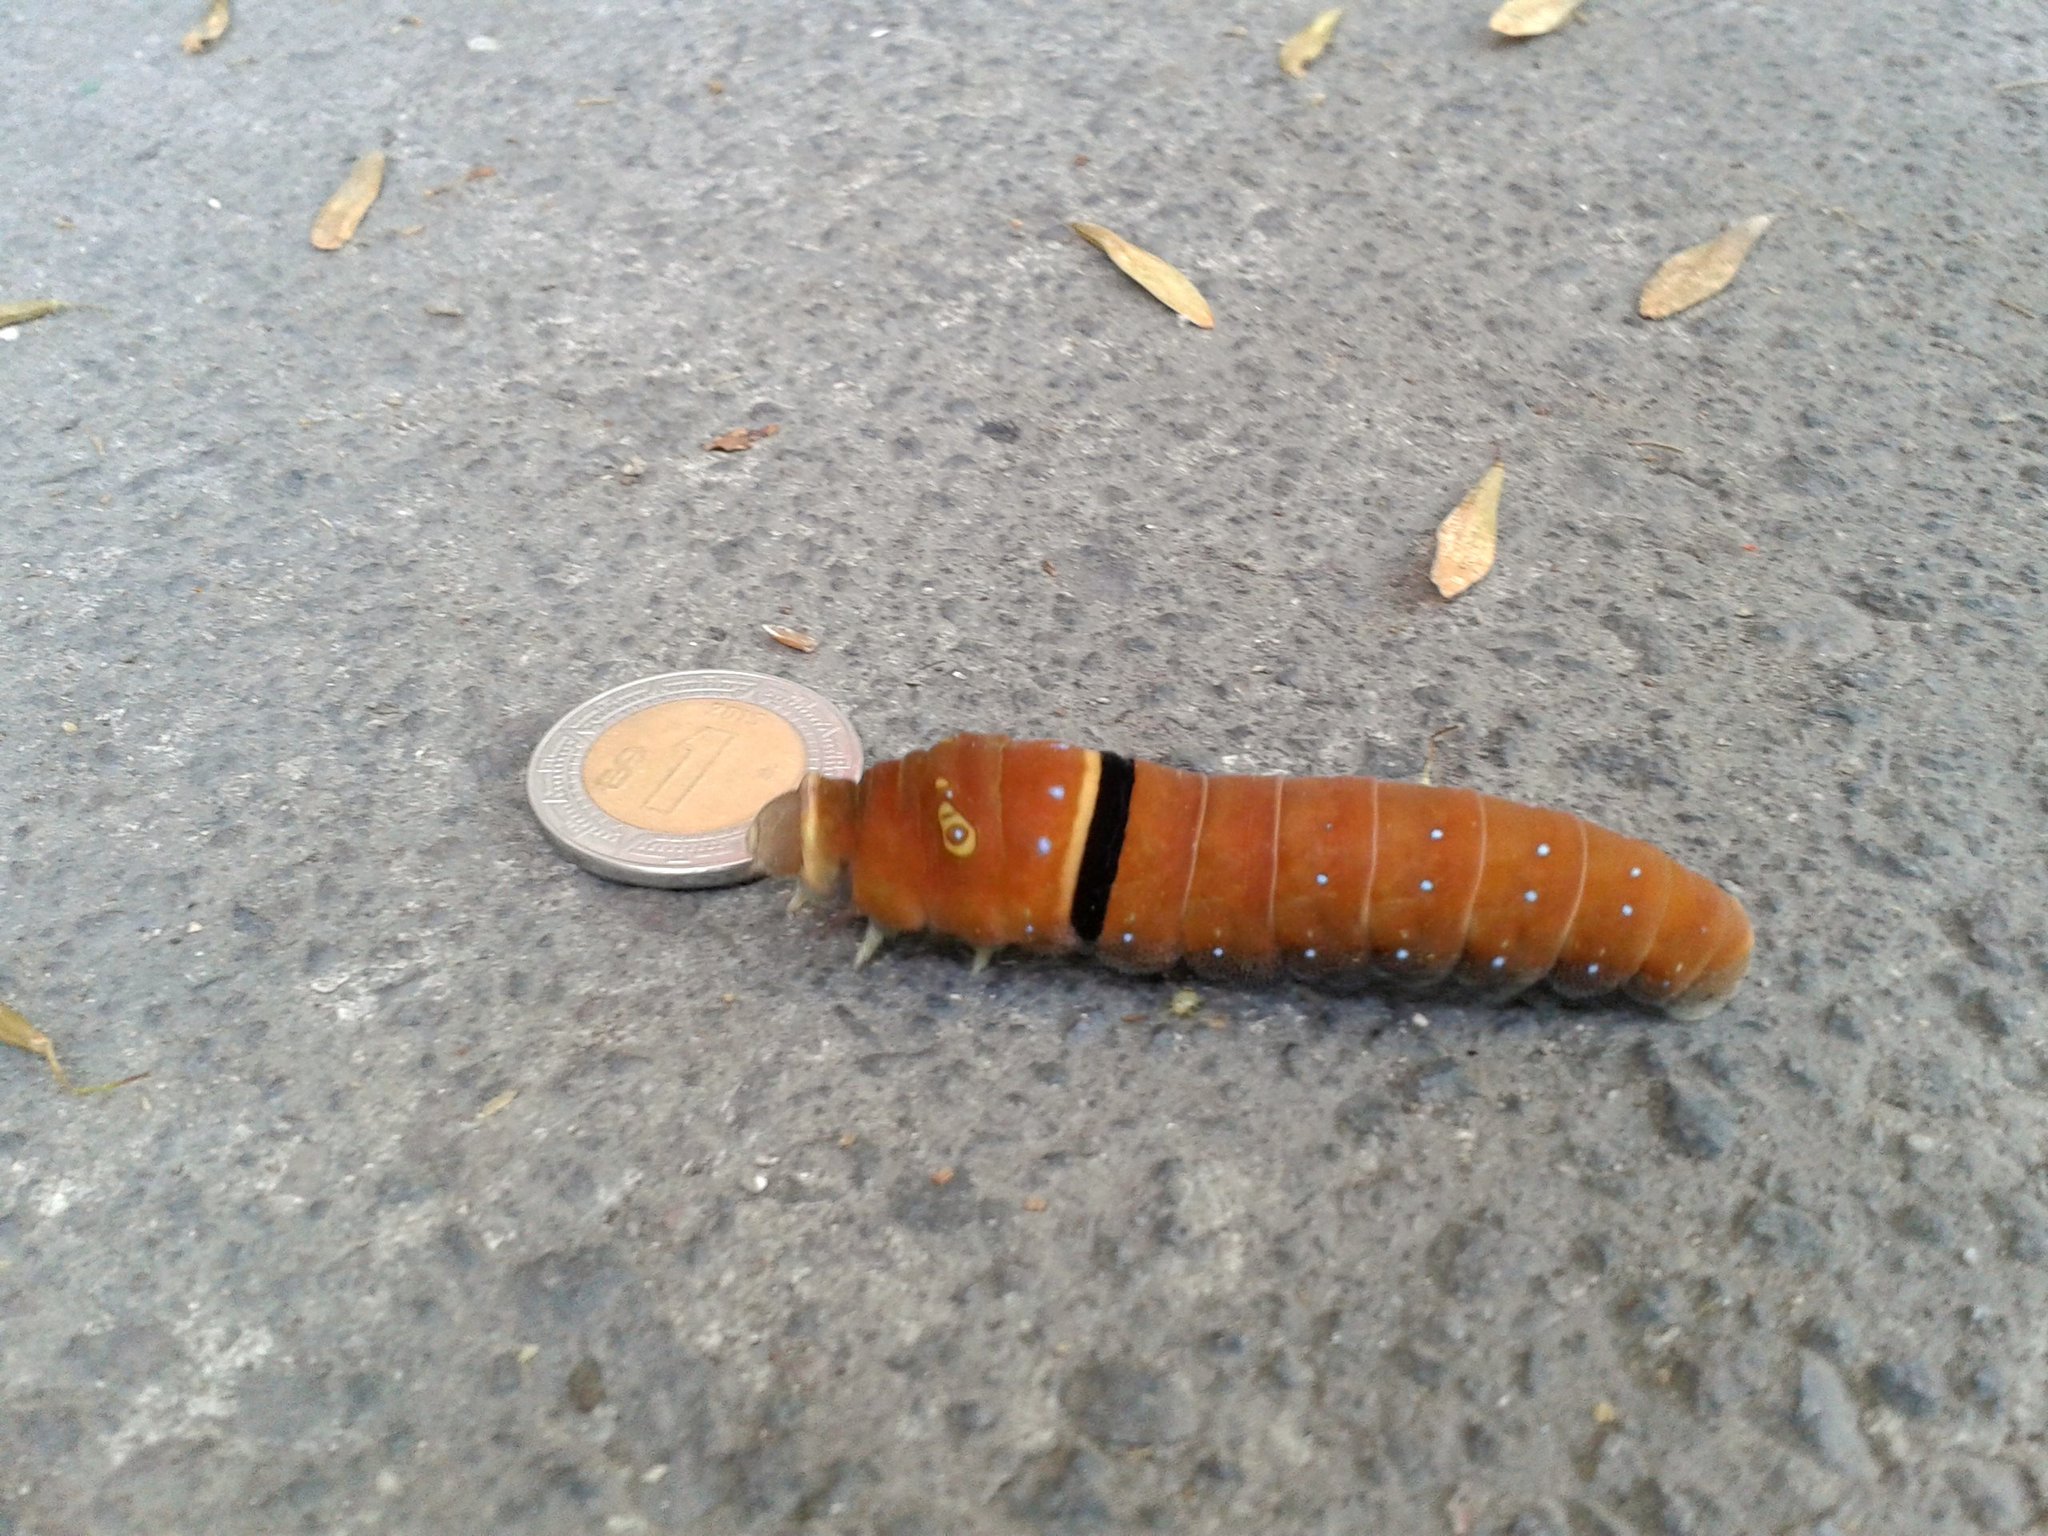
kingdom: Animalia
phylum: Arthropoda
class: Insecta
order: Lepidoptera
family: Papilionidae
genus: Papilio
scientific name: Papilio multicaudata
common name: Two-tailed tiger swallowtail
